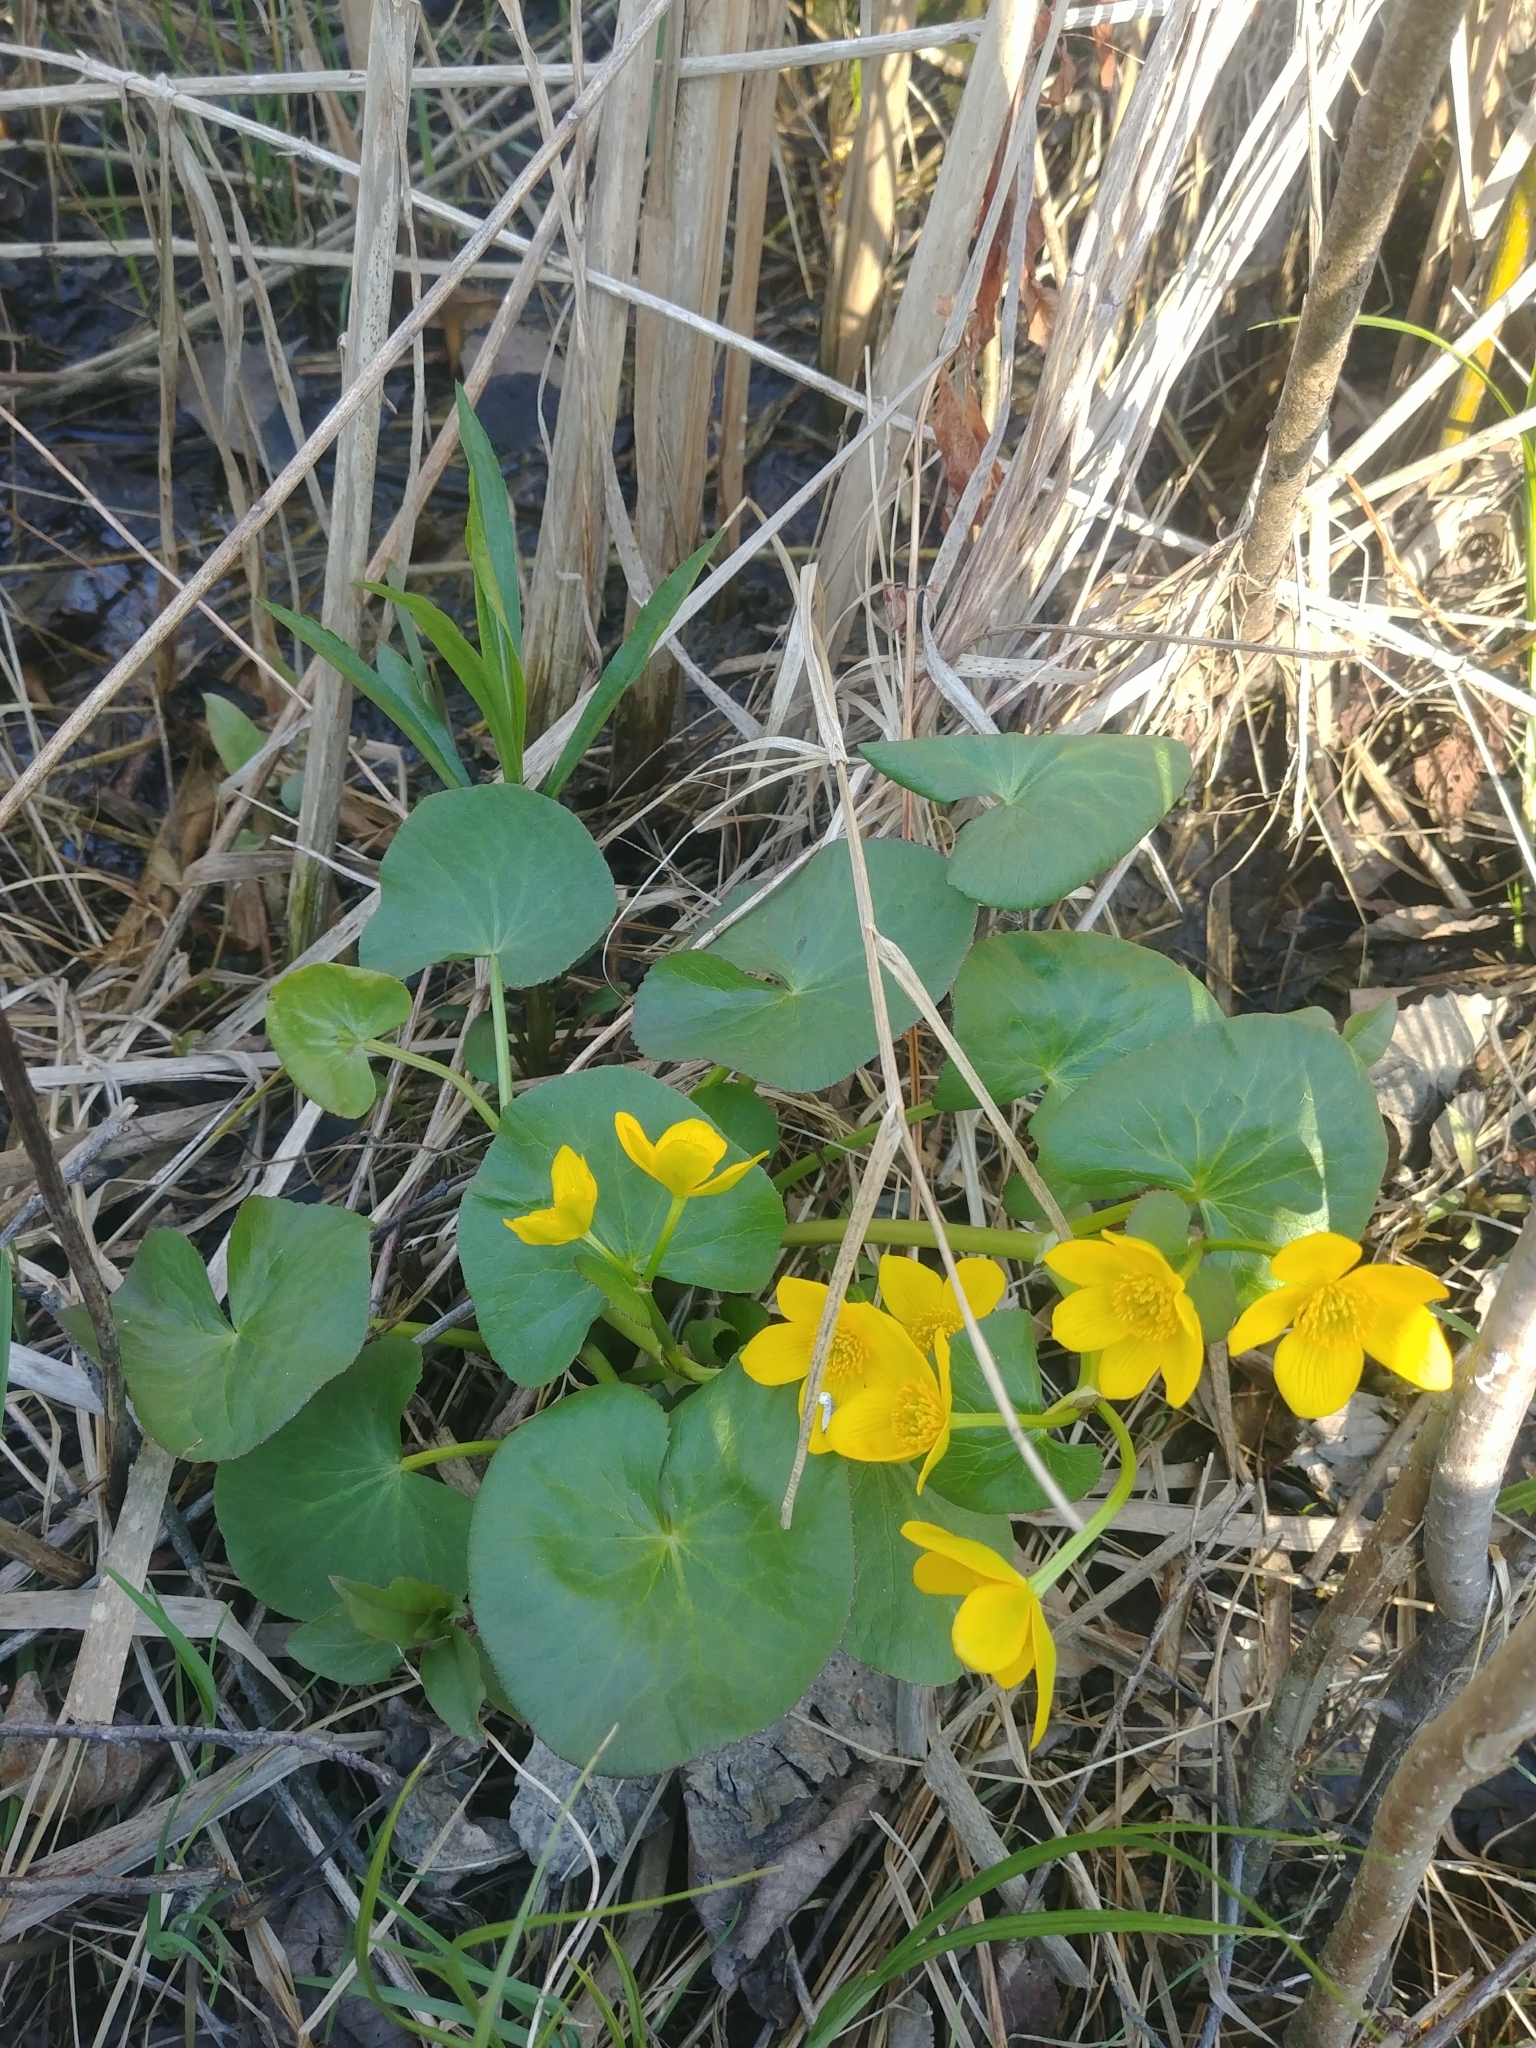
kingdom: Plantae
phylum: Tracheophyta
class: Magnoliopsida
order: Ranunculales
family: Ranunculaceae
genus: Caltha
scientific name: Caltha palustris
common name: Marsh marigold
